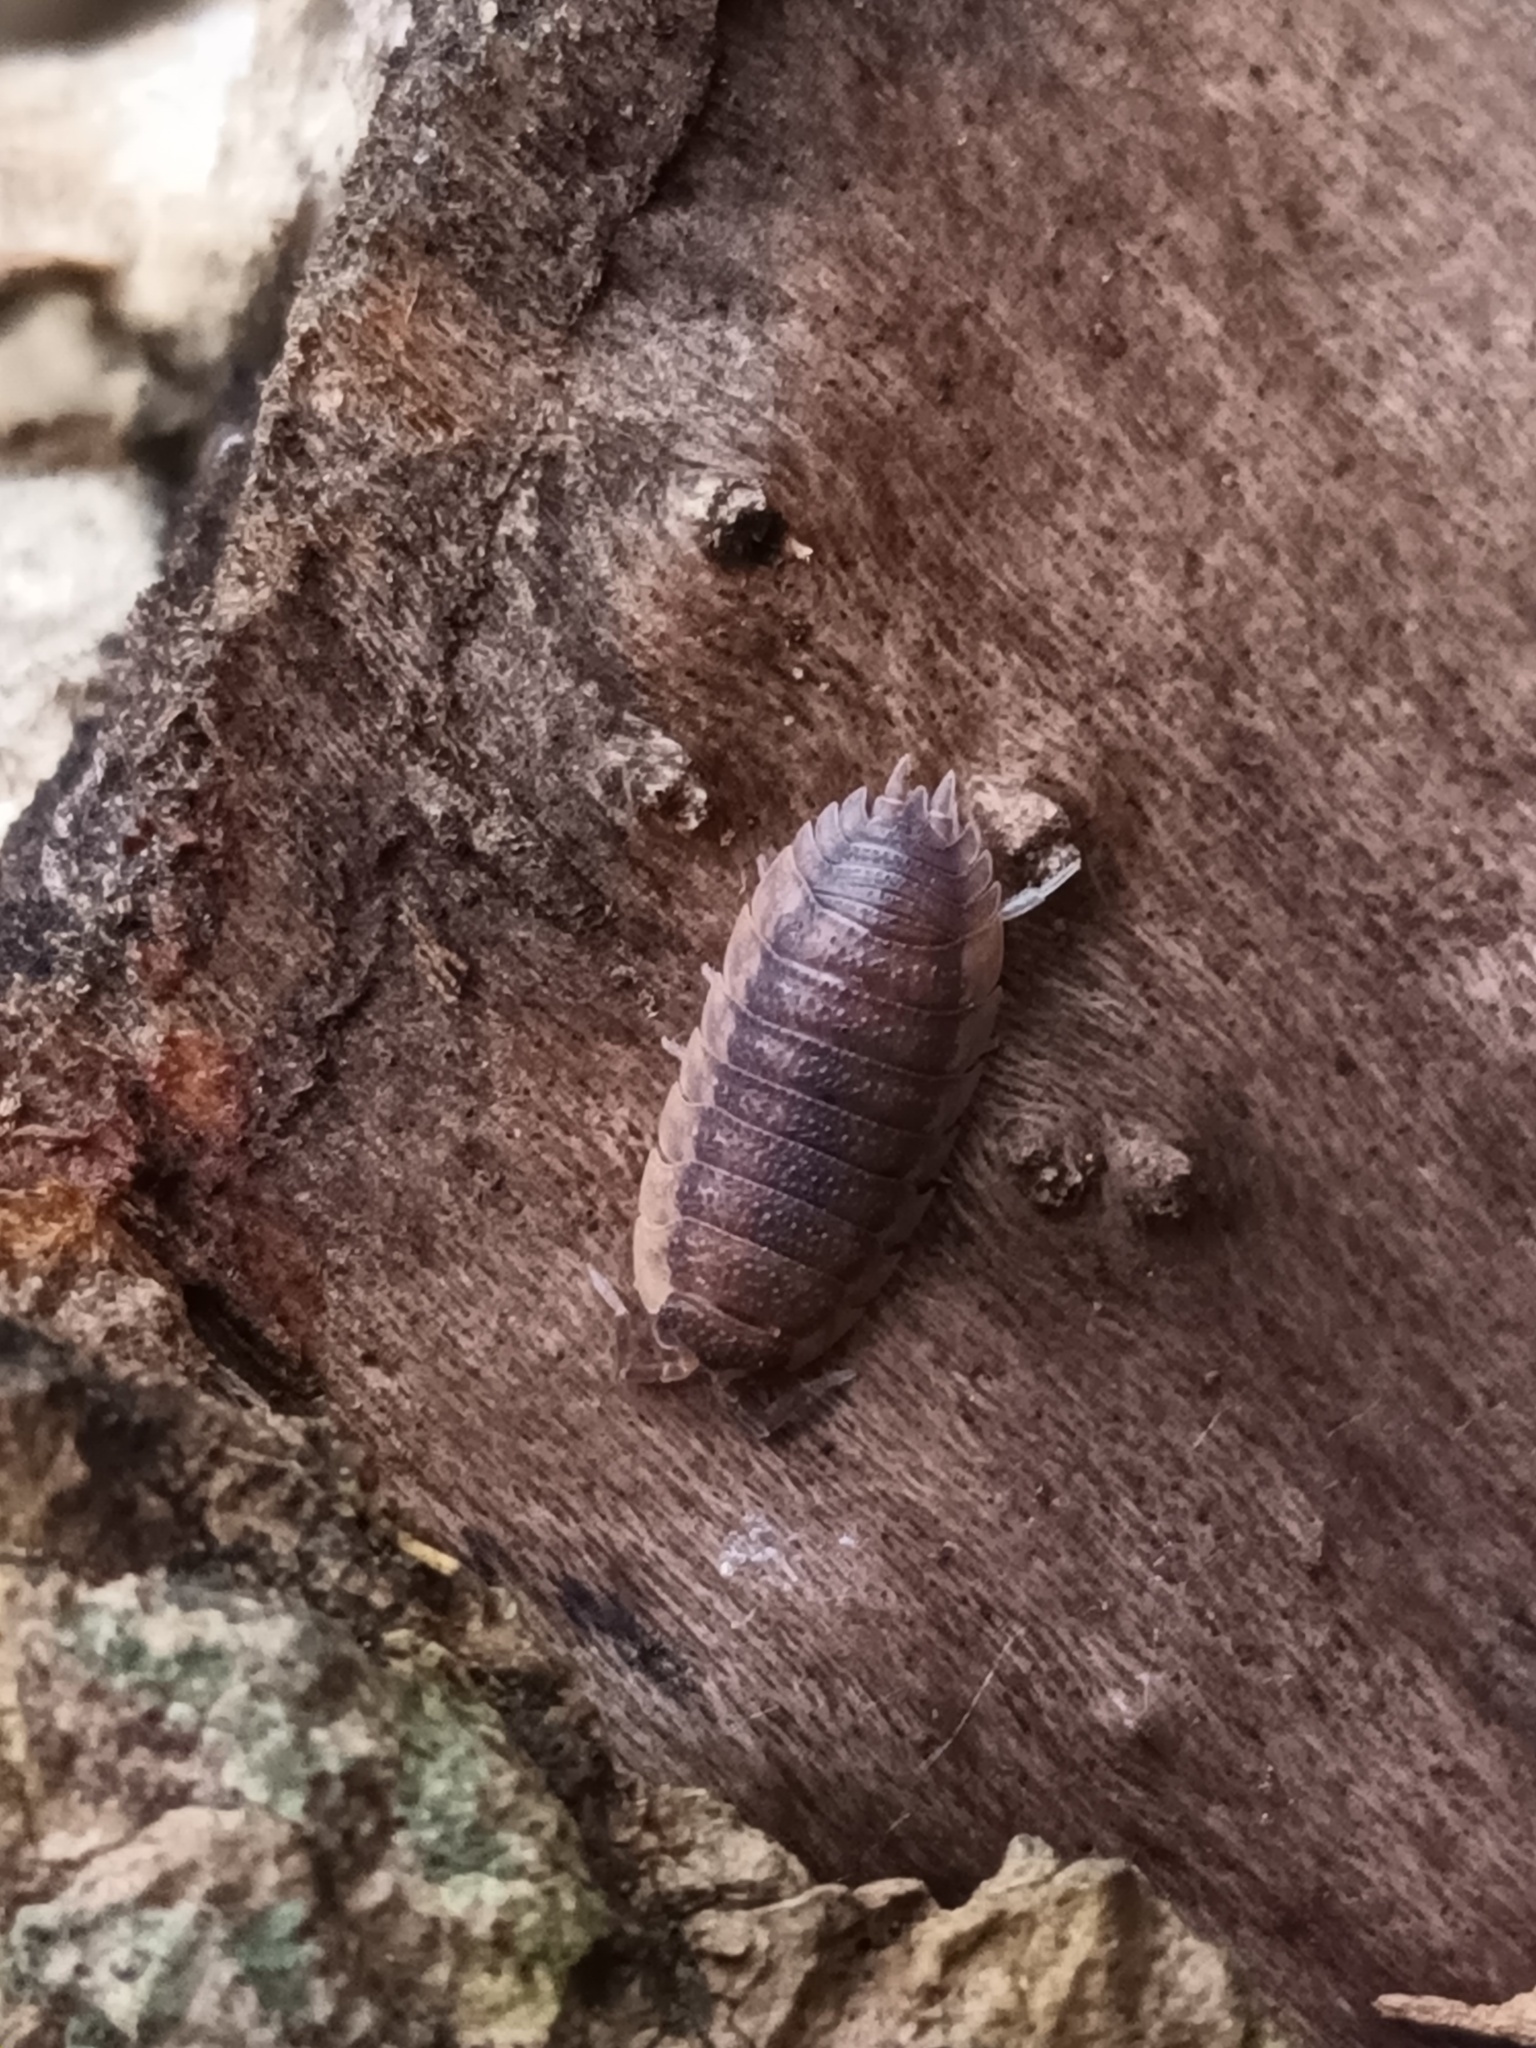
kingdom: Animalia
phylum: Arthropoda
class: Malacostraca
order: Isopoda
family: Porcellionidae
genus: Porcellio
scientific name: Porcellio scaber
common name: Common rough woodlouse
